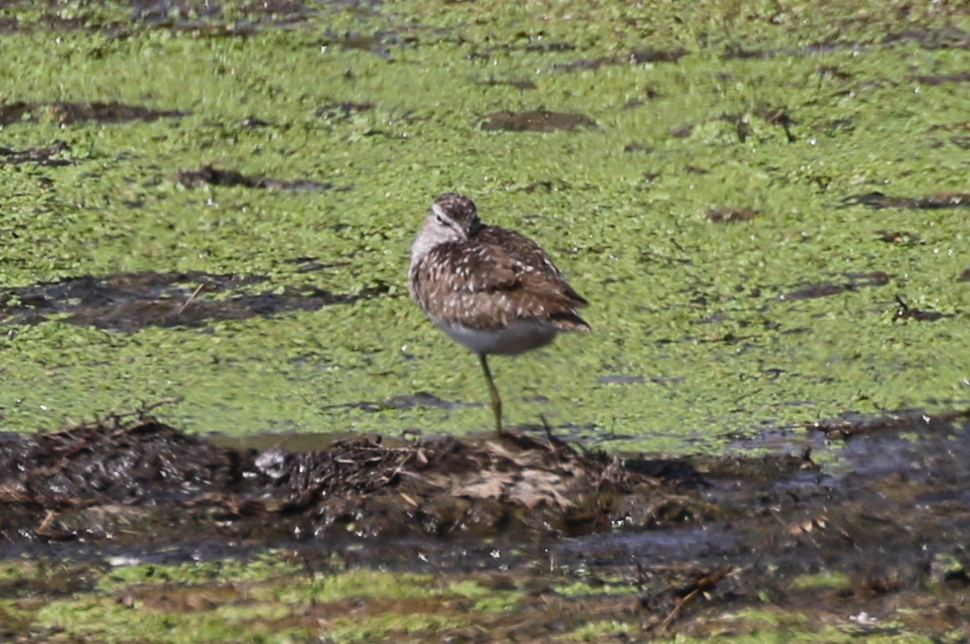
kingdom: Animalia
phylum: Chordata
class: Aves
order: Charadriiformes
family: Scolopacidae
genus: Tringa
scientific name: Tringa glareola
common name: Wood sandpiper
